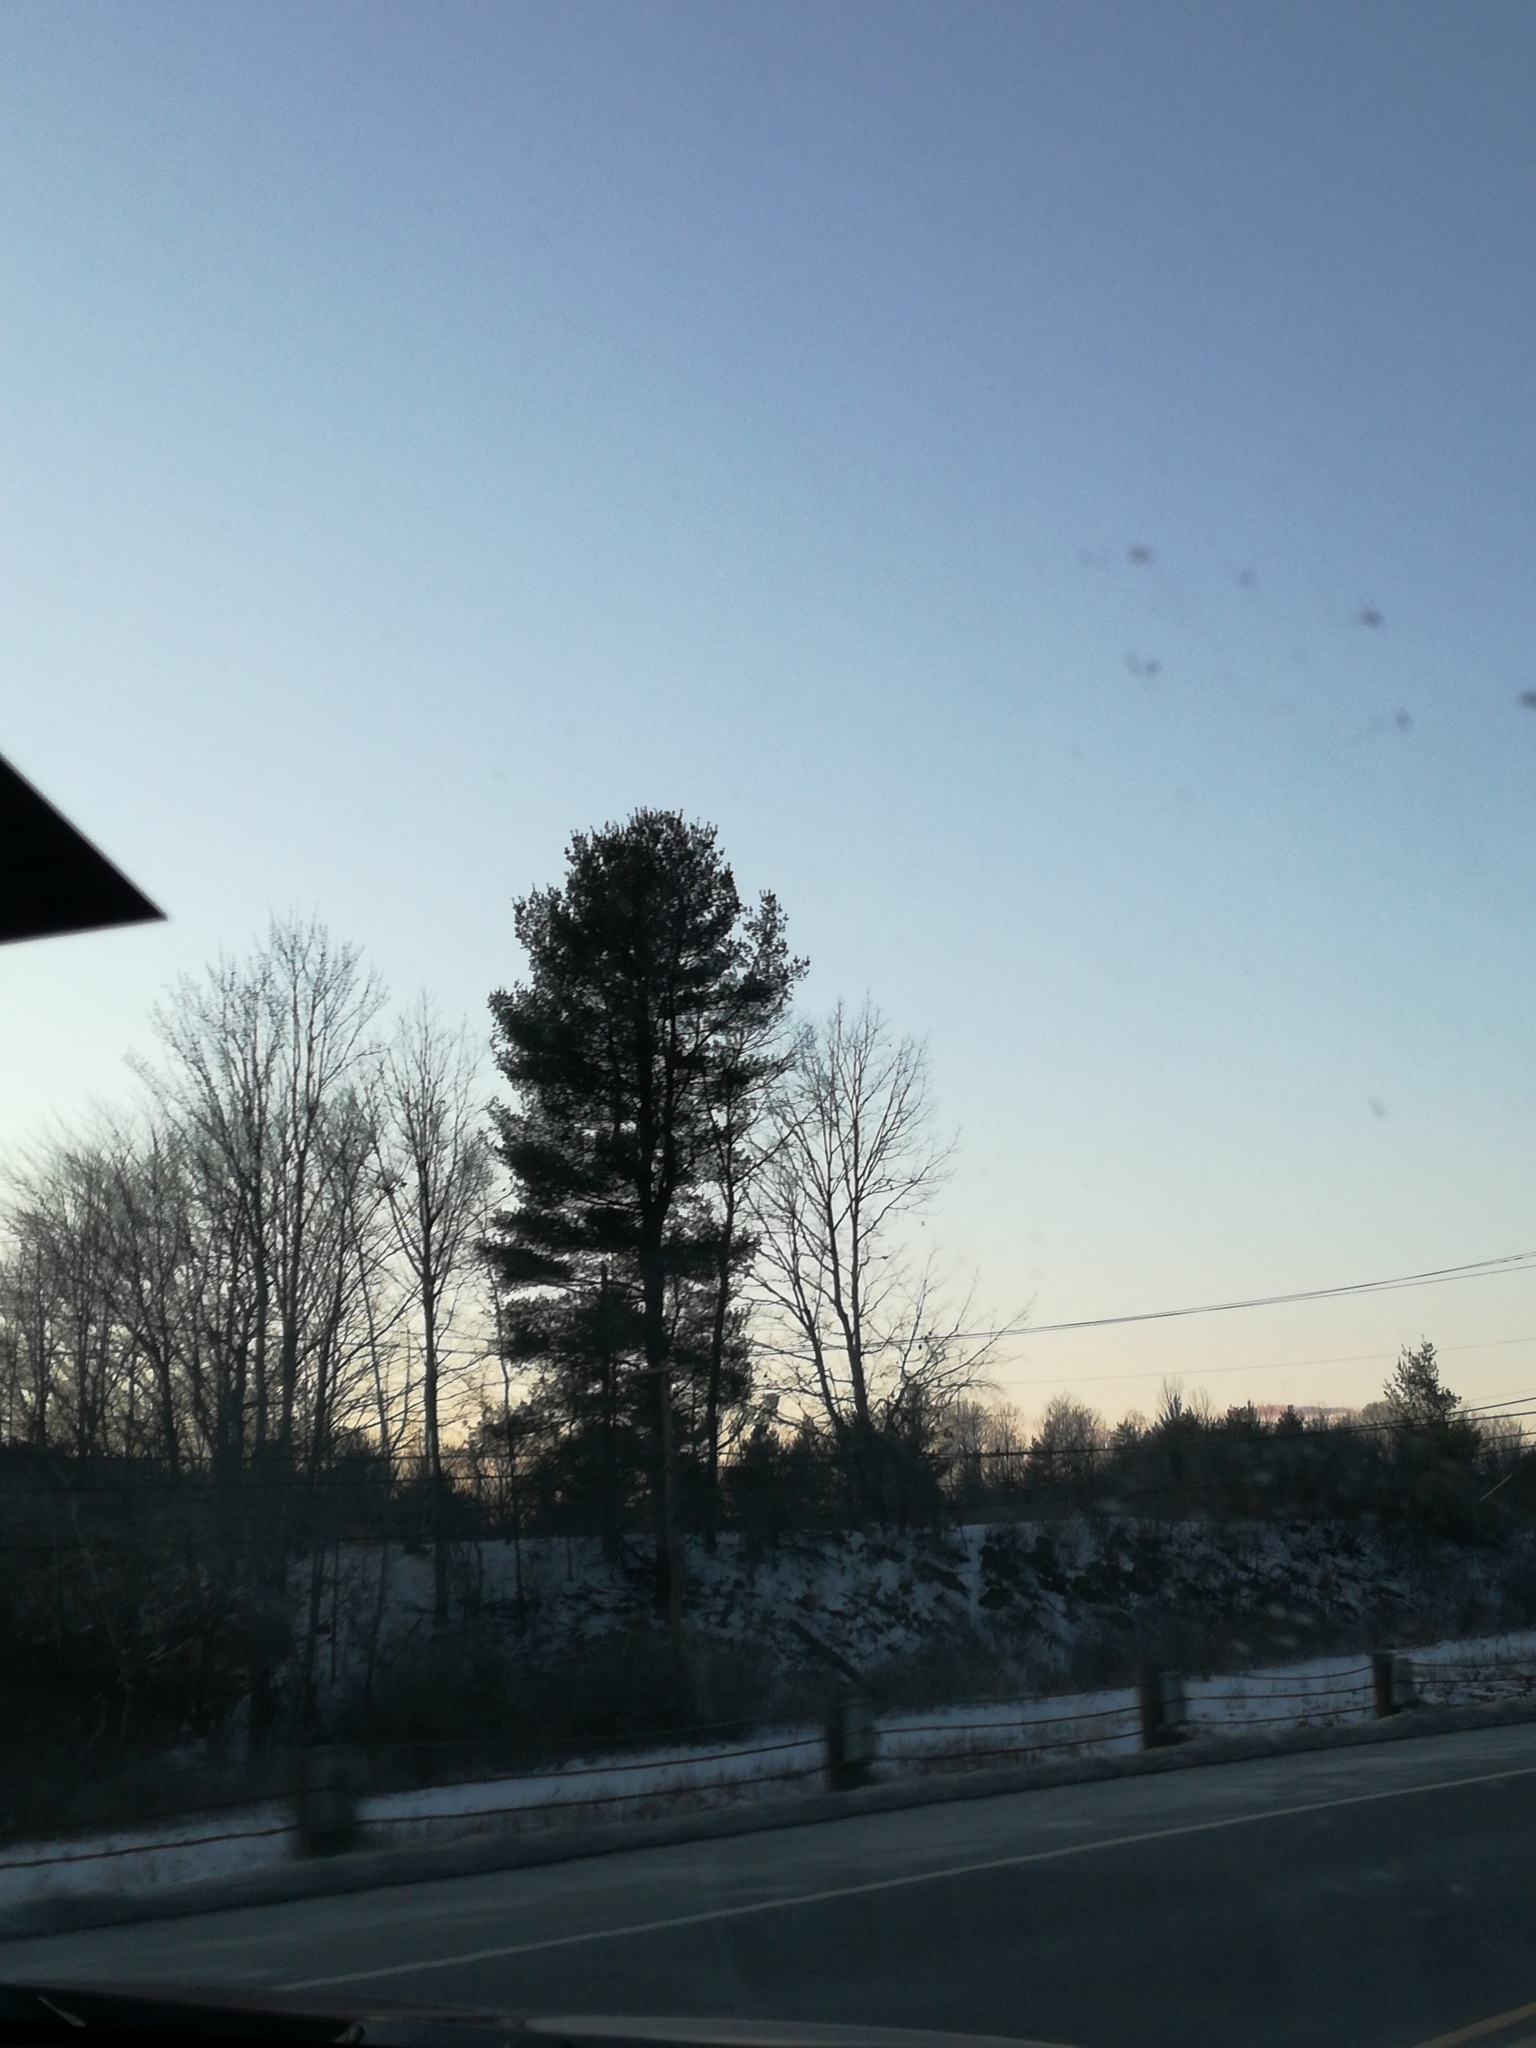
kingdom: Plantae
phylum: Tracheophyta
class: Pinopsida
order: Pinales
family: Pinaceae
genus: Pinus
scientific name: Pinus strobus
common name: Weymouth pine
